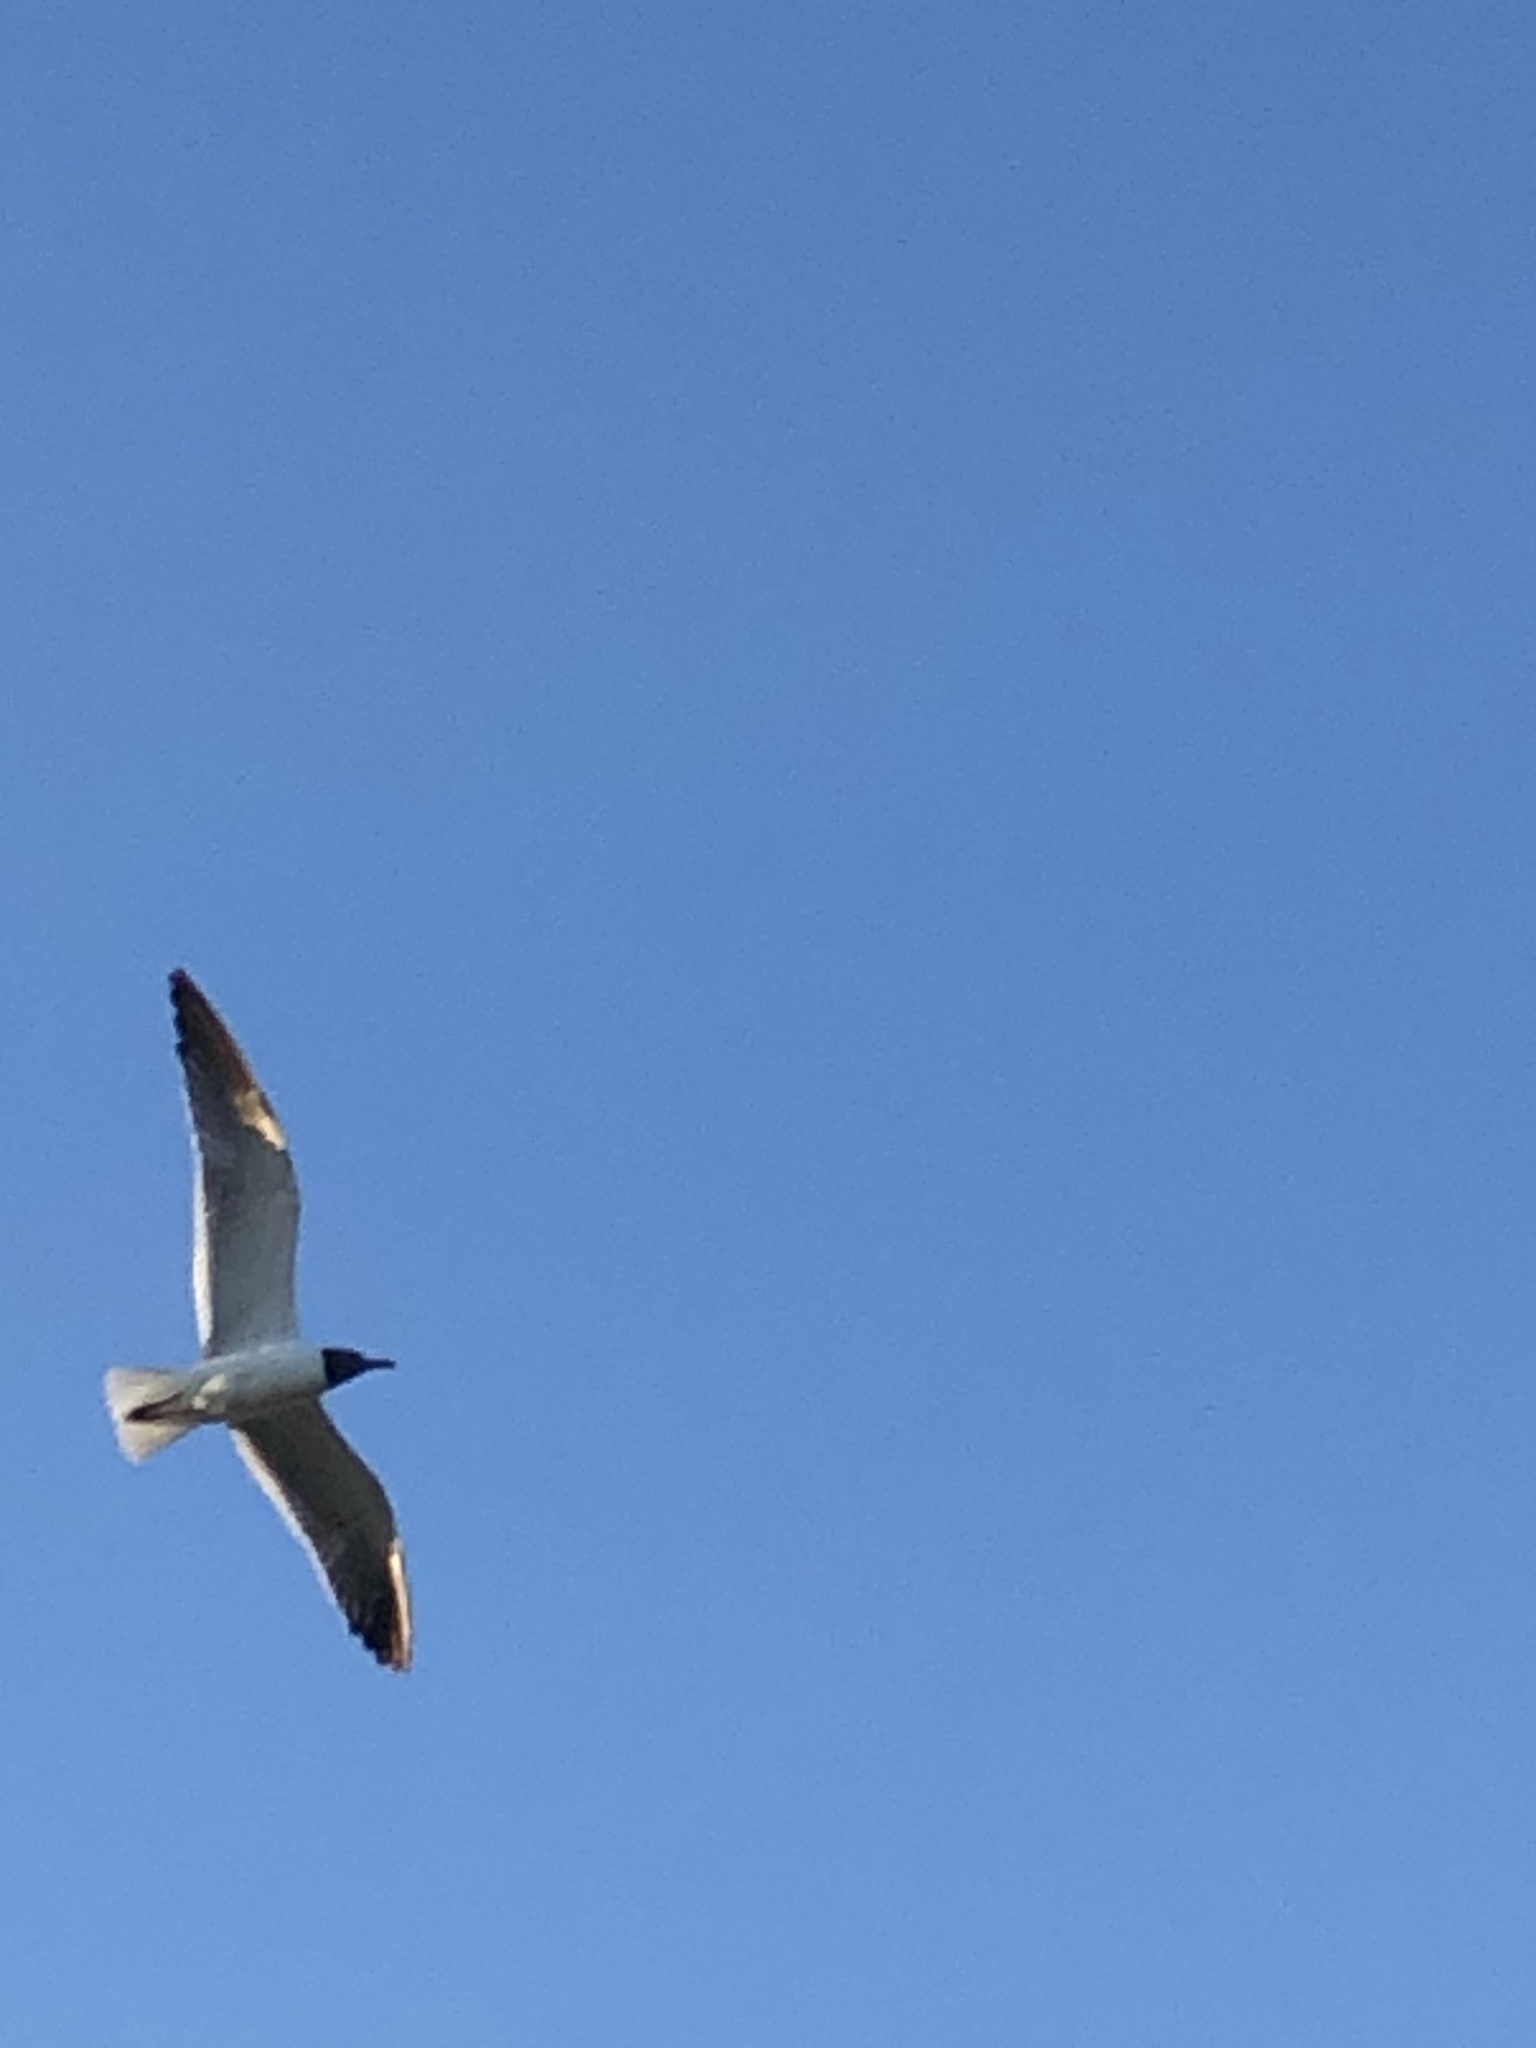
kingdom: Animalia
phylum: Chordata
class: Aves
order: Charadriiformes
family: Laridae
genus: Leucophaeus
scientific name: Leucophaeus atricilla
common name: Laughing gull
